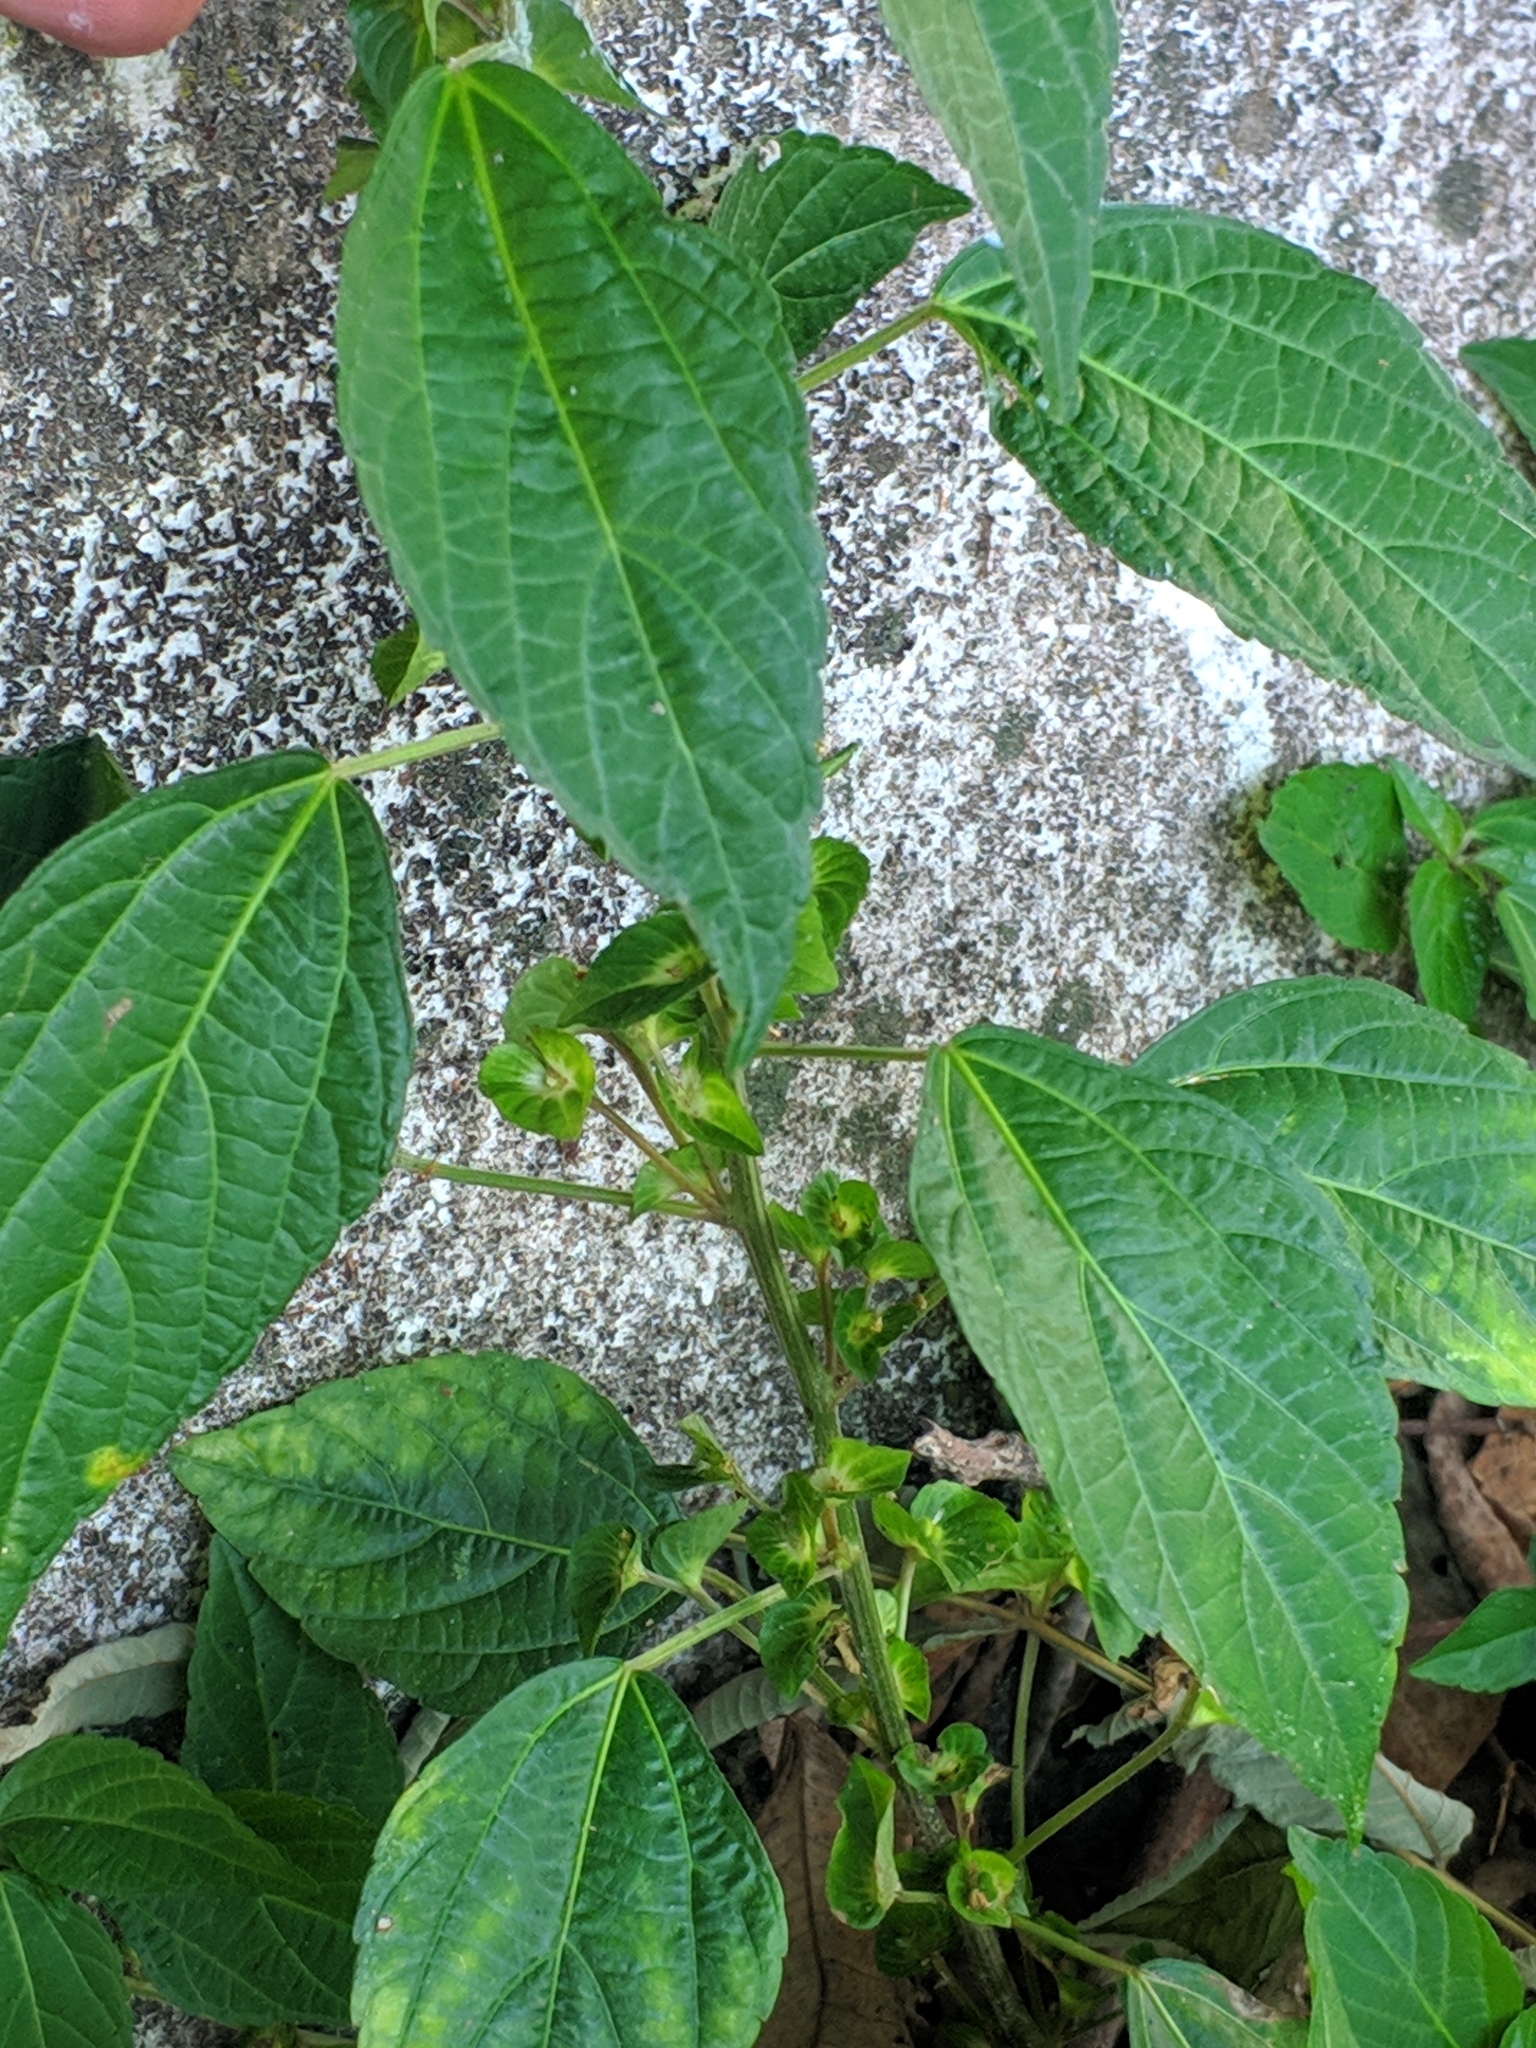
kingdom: Plantae
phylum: Tracheophyta
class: Magnoliopsida
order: Malpighiales
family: Euphorbiaceae
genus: Acalypha
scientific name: Acalypha australis
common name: Asian copperleaf
